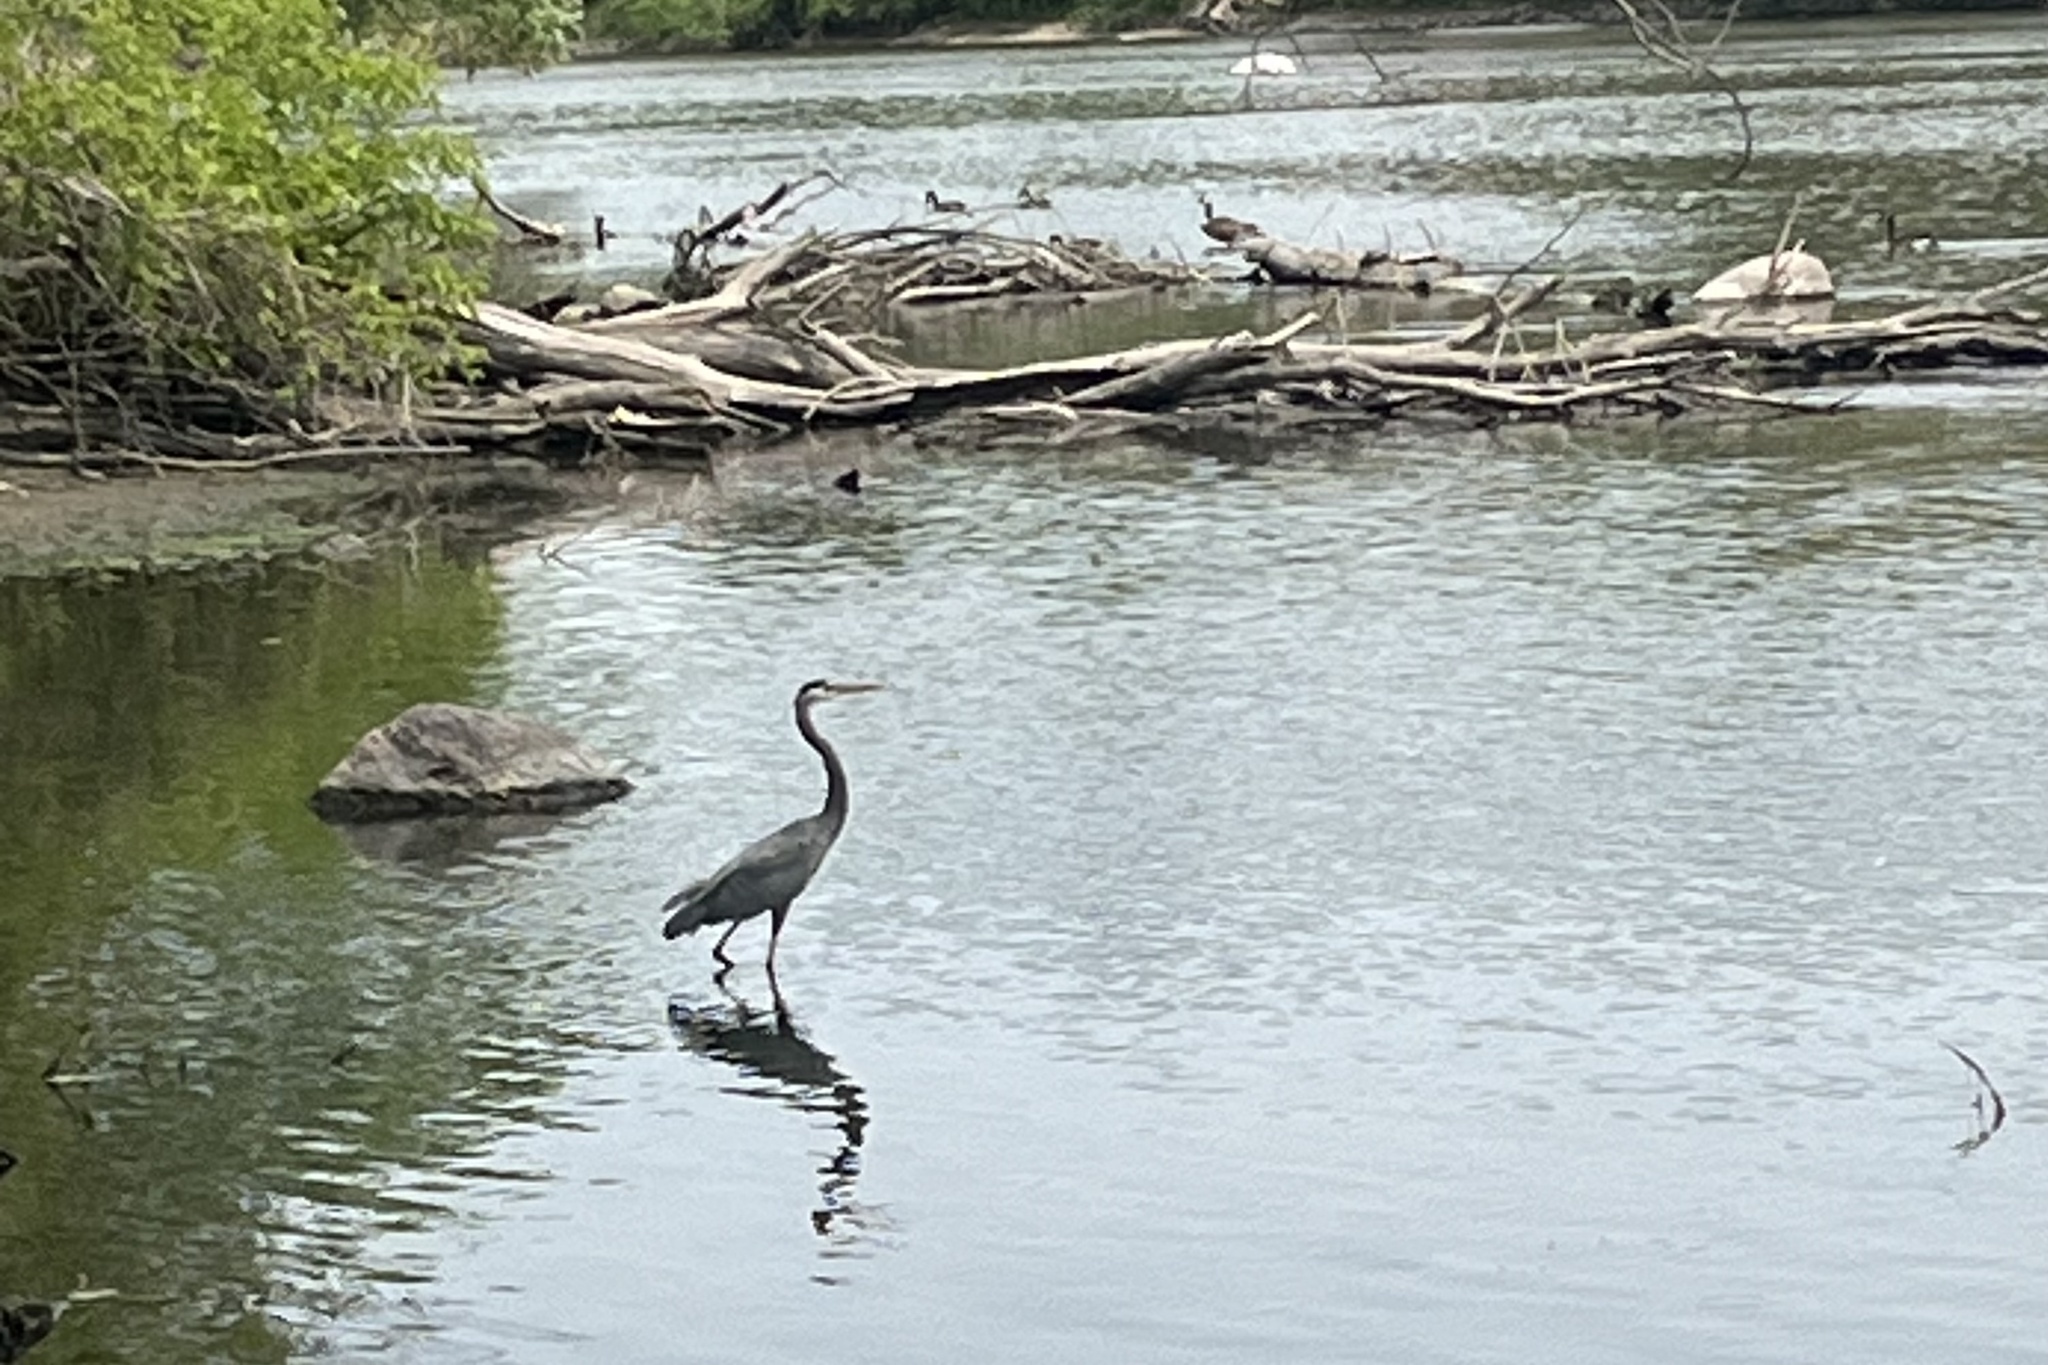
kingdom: Animalia
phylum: Chordata
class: Aves
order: Pelecaniformes
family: Ardeidae
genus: Ardea
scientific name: Ardea herodias
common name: Great blue heron
